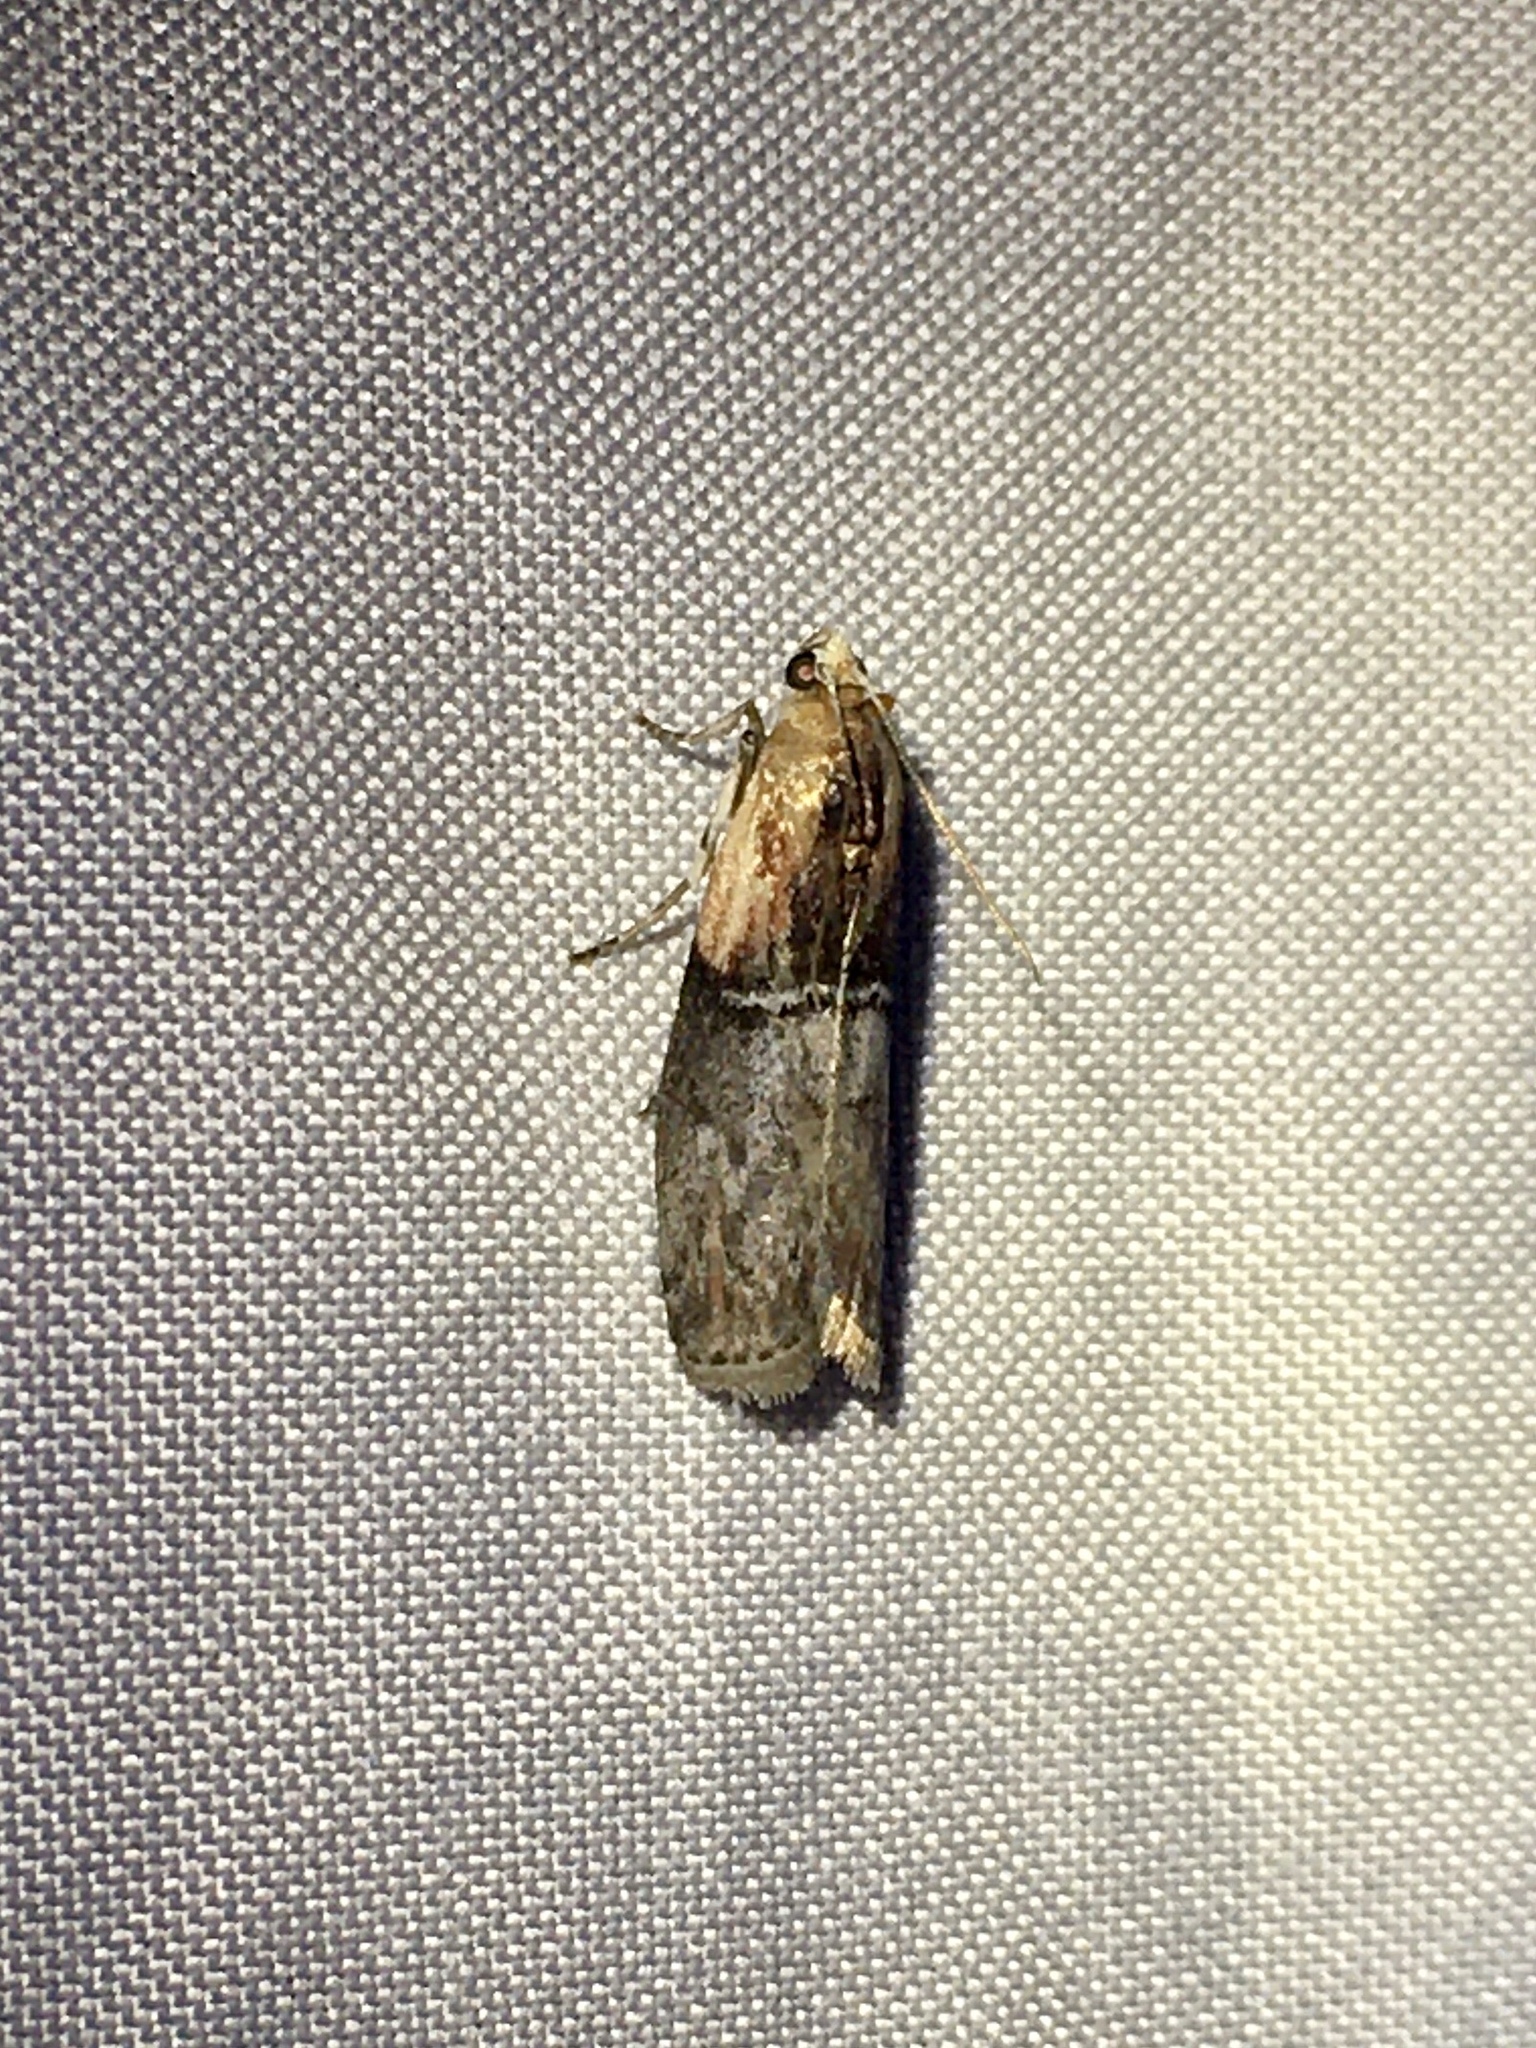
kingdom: Animalia
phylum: Arthropoda
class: Insecta
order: Lepidoptera
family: Pyralidae
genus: Sciota
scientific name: Sciota basilaris
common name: Yellow-shouldered leafroller
